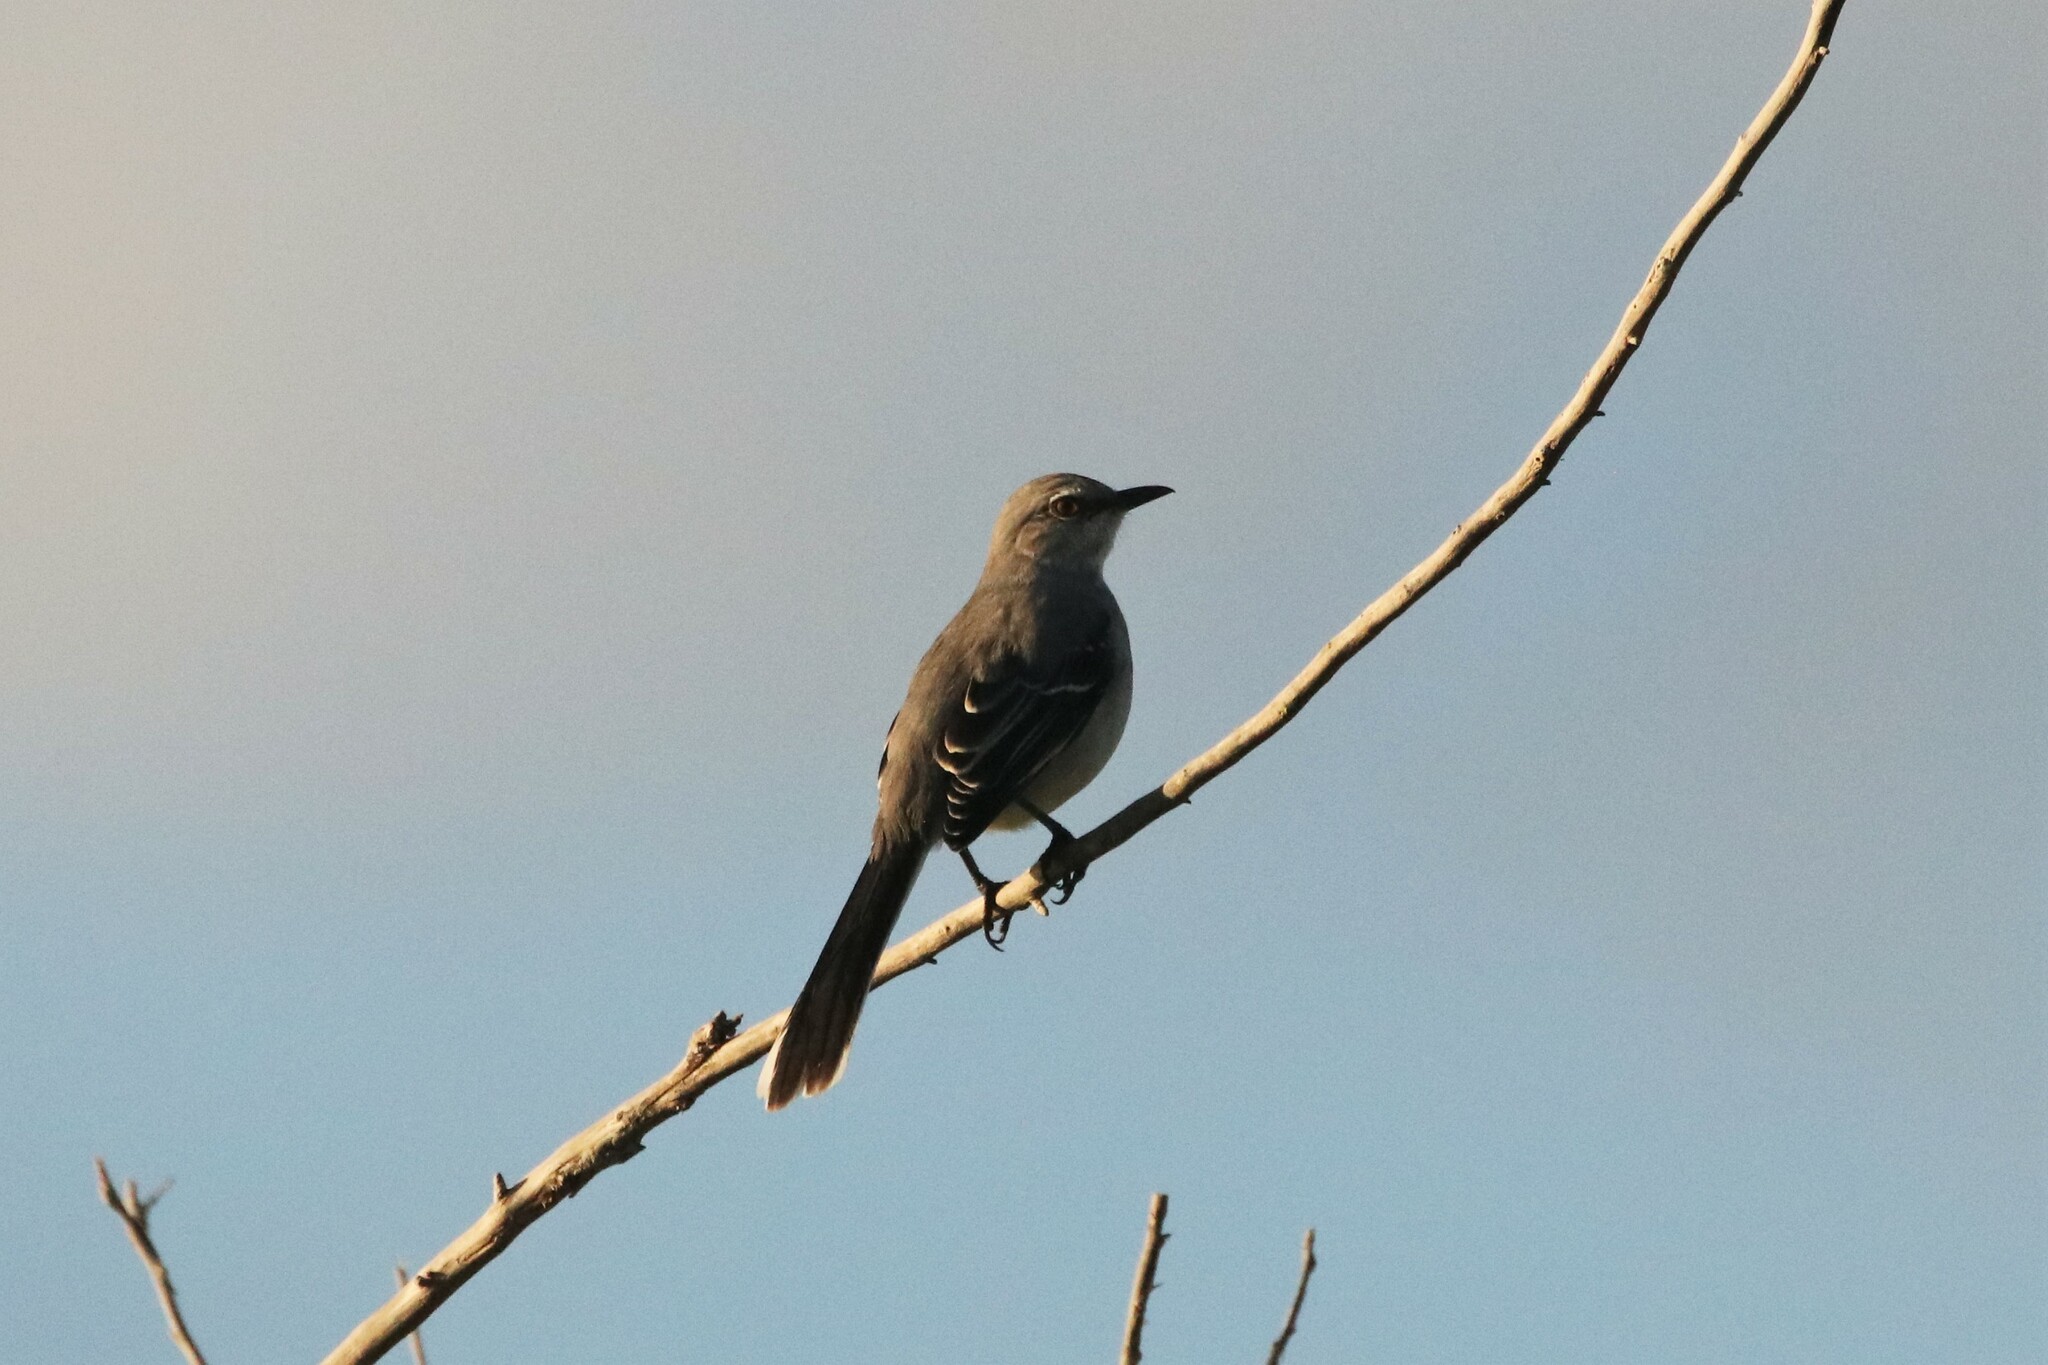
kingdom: Animalia
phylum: Chordata
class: Aves
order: Passeriformes
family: Mimidae
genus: Mimus
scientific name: Mimus gilvus
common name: Tropical mockingbird
